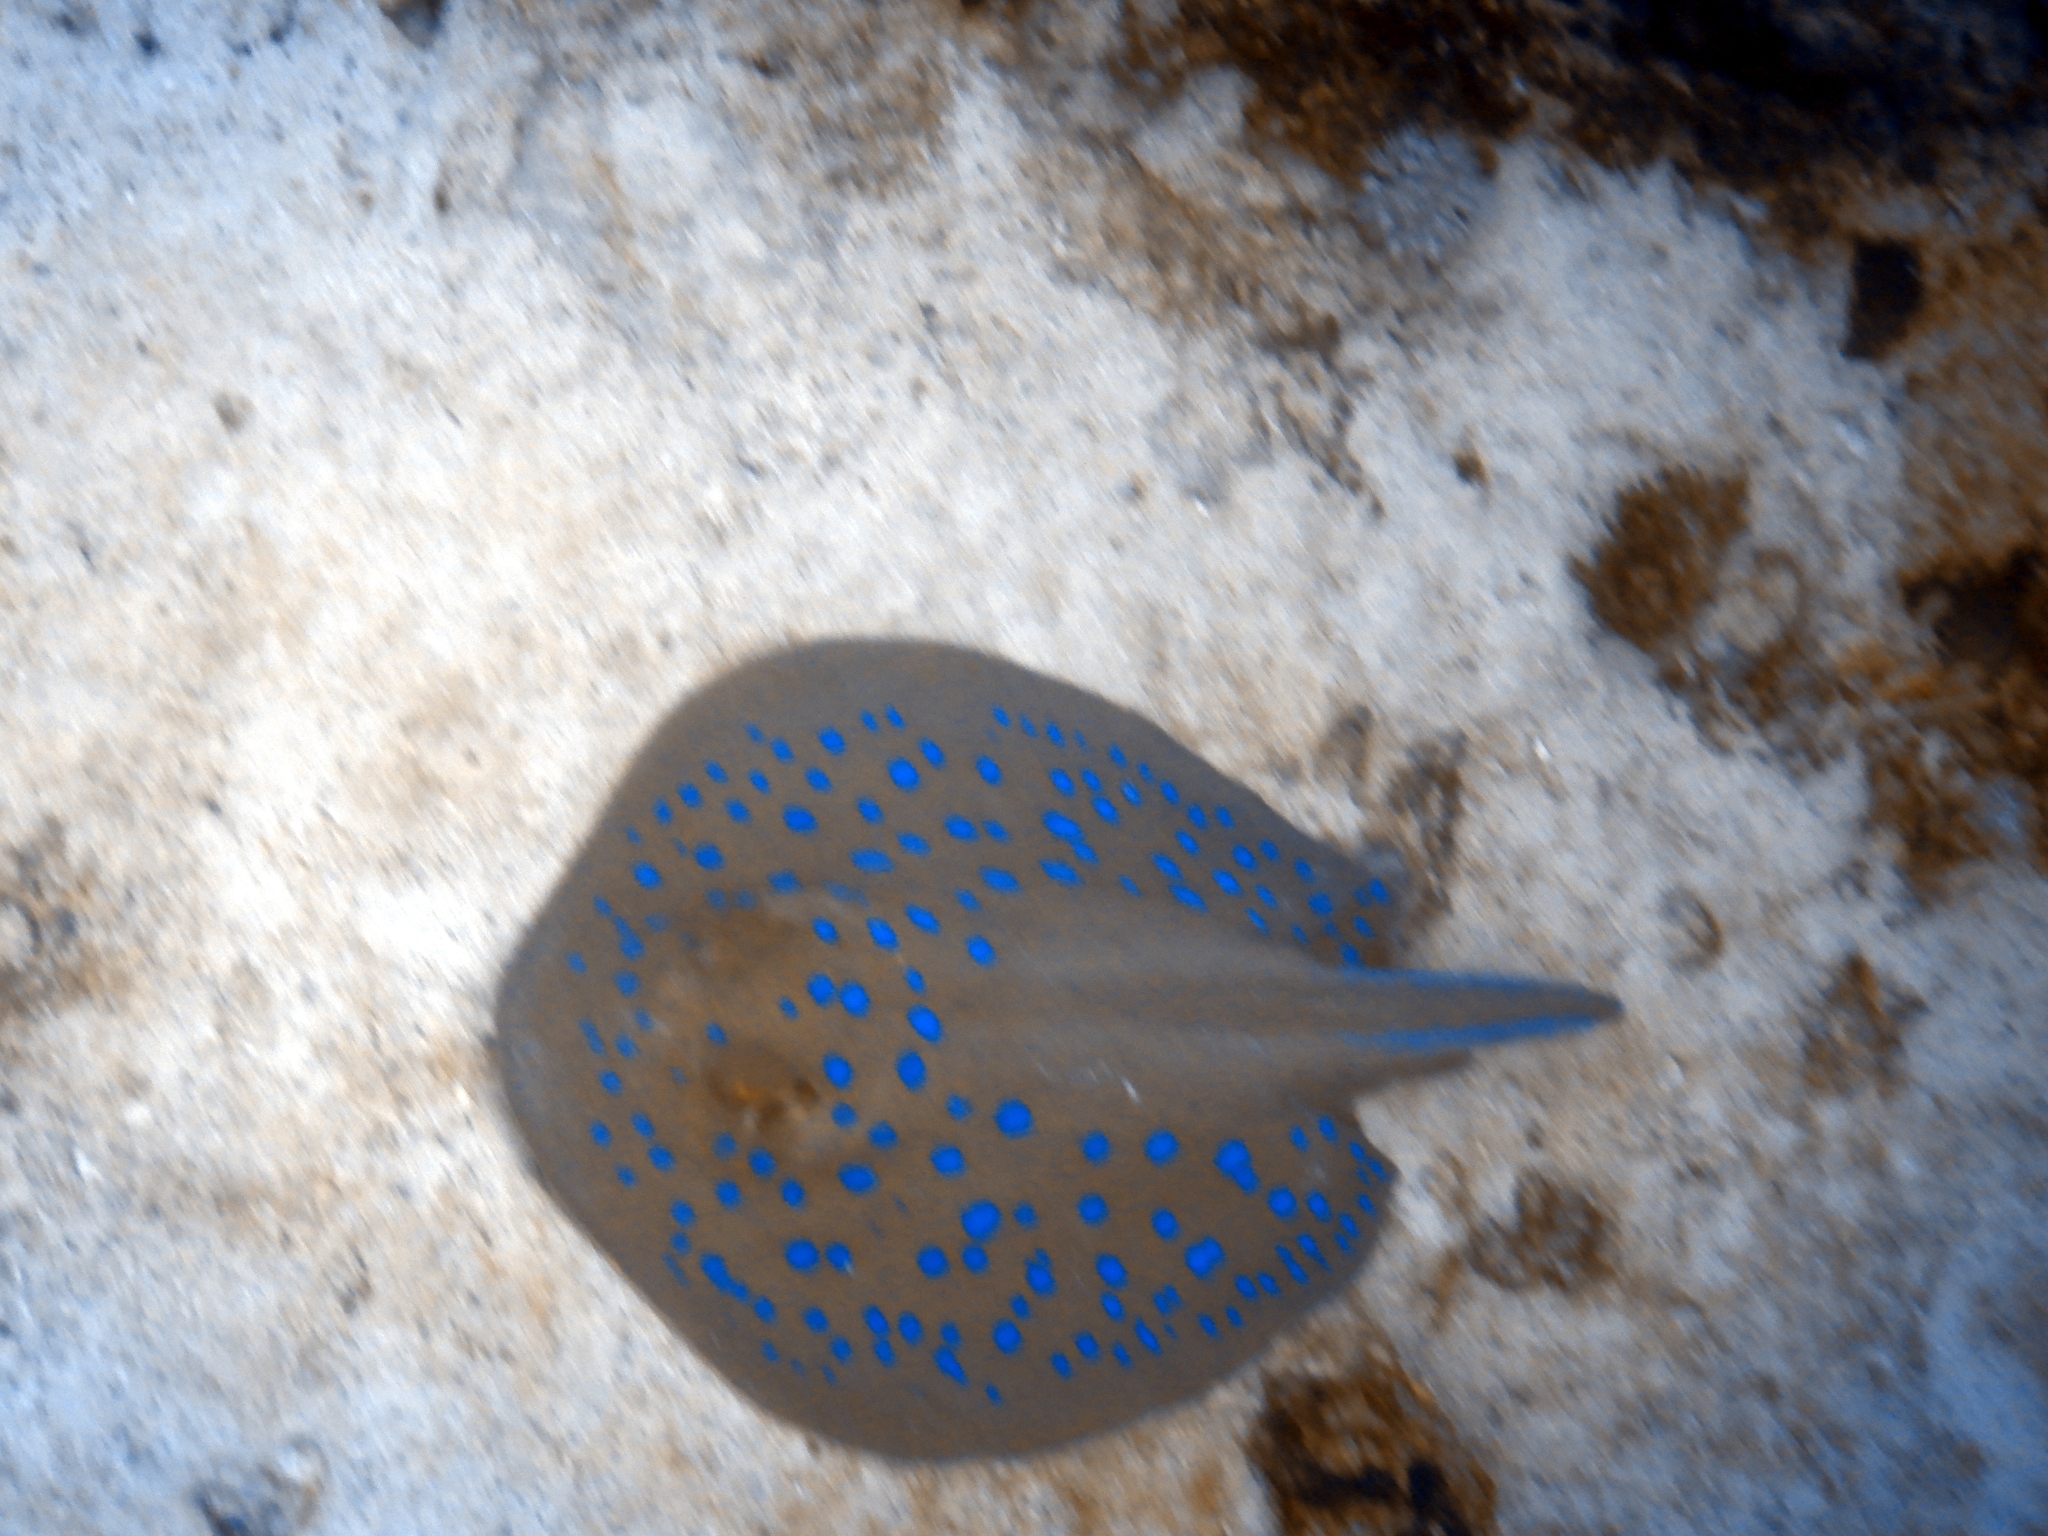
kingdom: Animalia
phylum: Chordata
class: Elasmobranchii
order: Myliobatiformes
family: Dasyatidae
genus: Taeniura
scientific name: Taeniura lymma
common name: Bluespotted ribbontail ray
